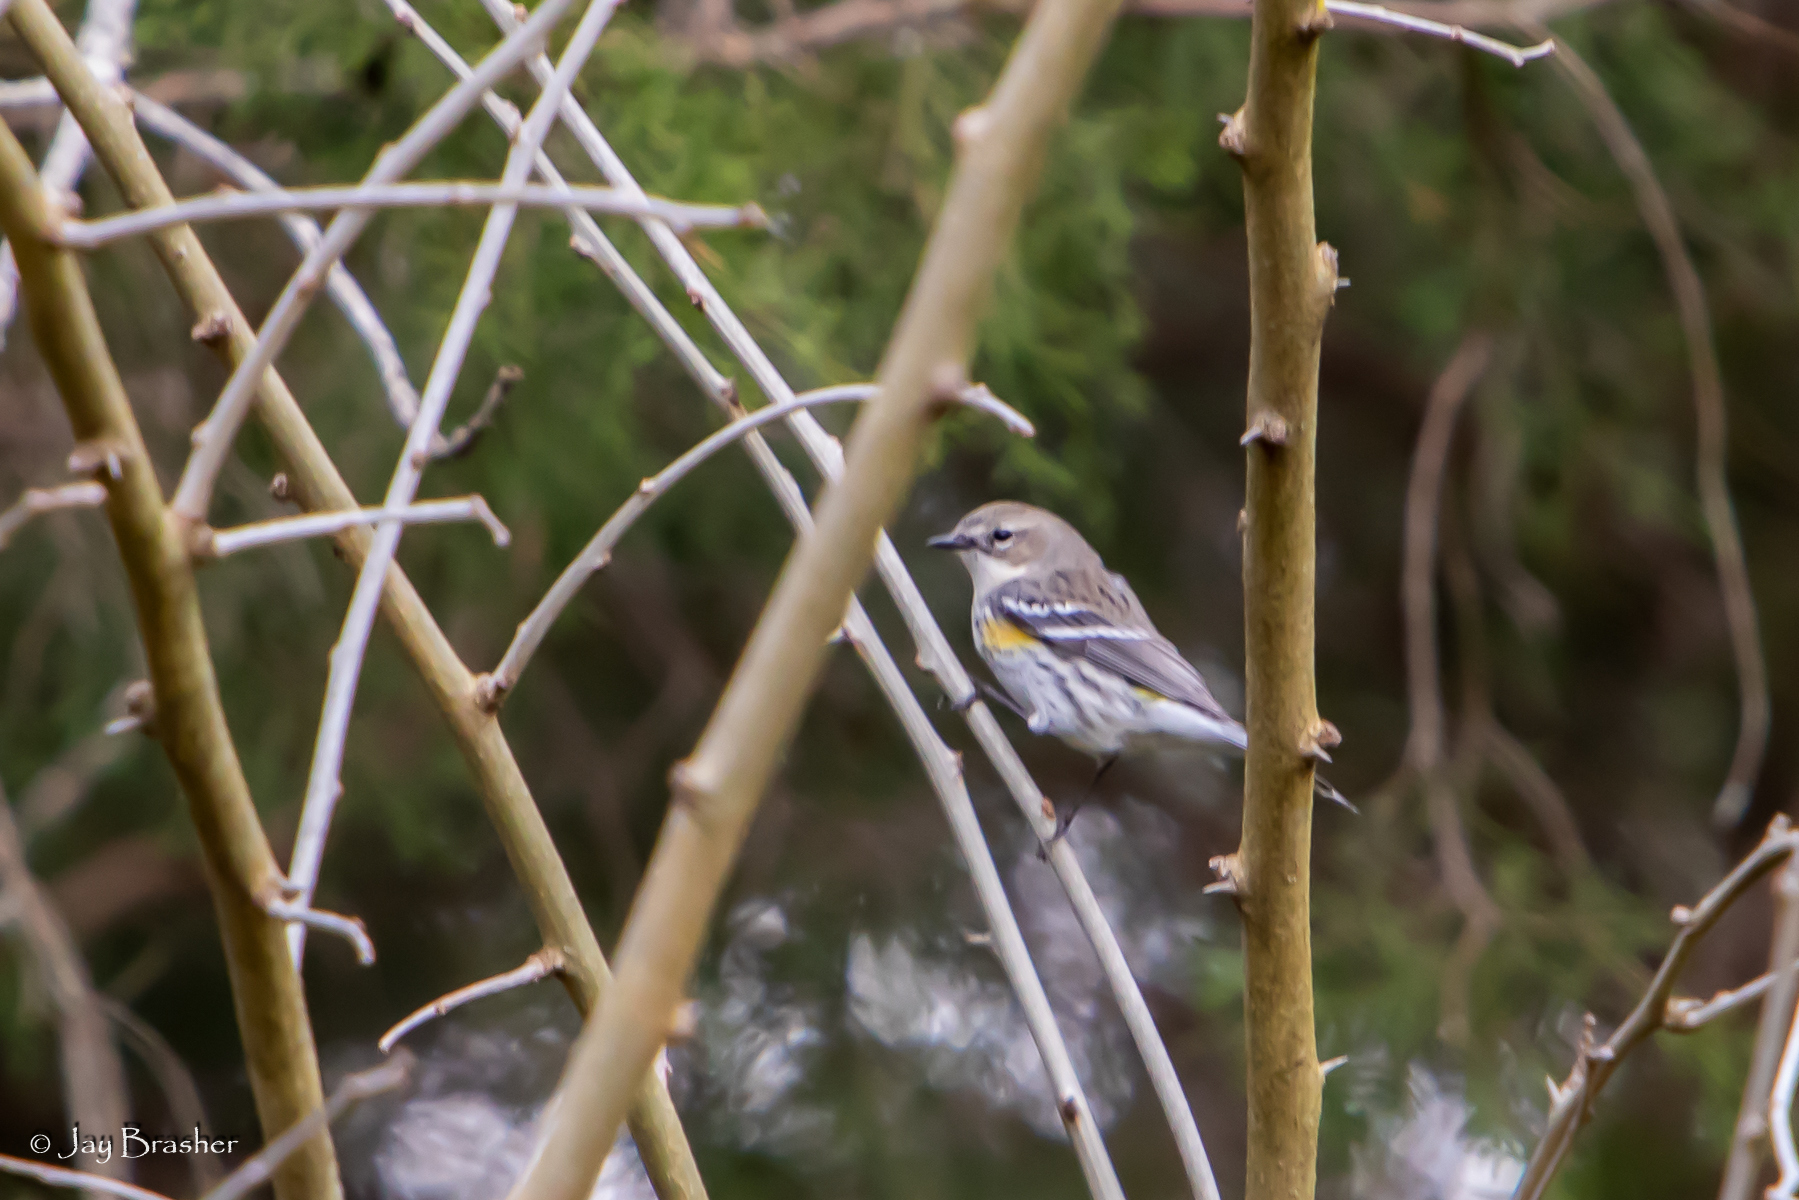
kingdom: Animalia
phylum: Chordata
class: Aves
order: Passeriformes
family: Parulidae
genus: Setophaga
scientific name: Setophaga coronata
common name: Myrtle warbler
